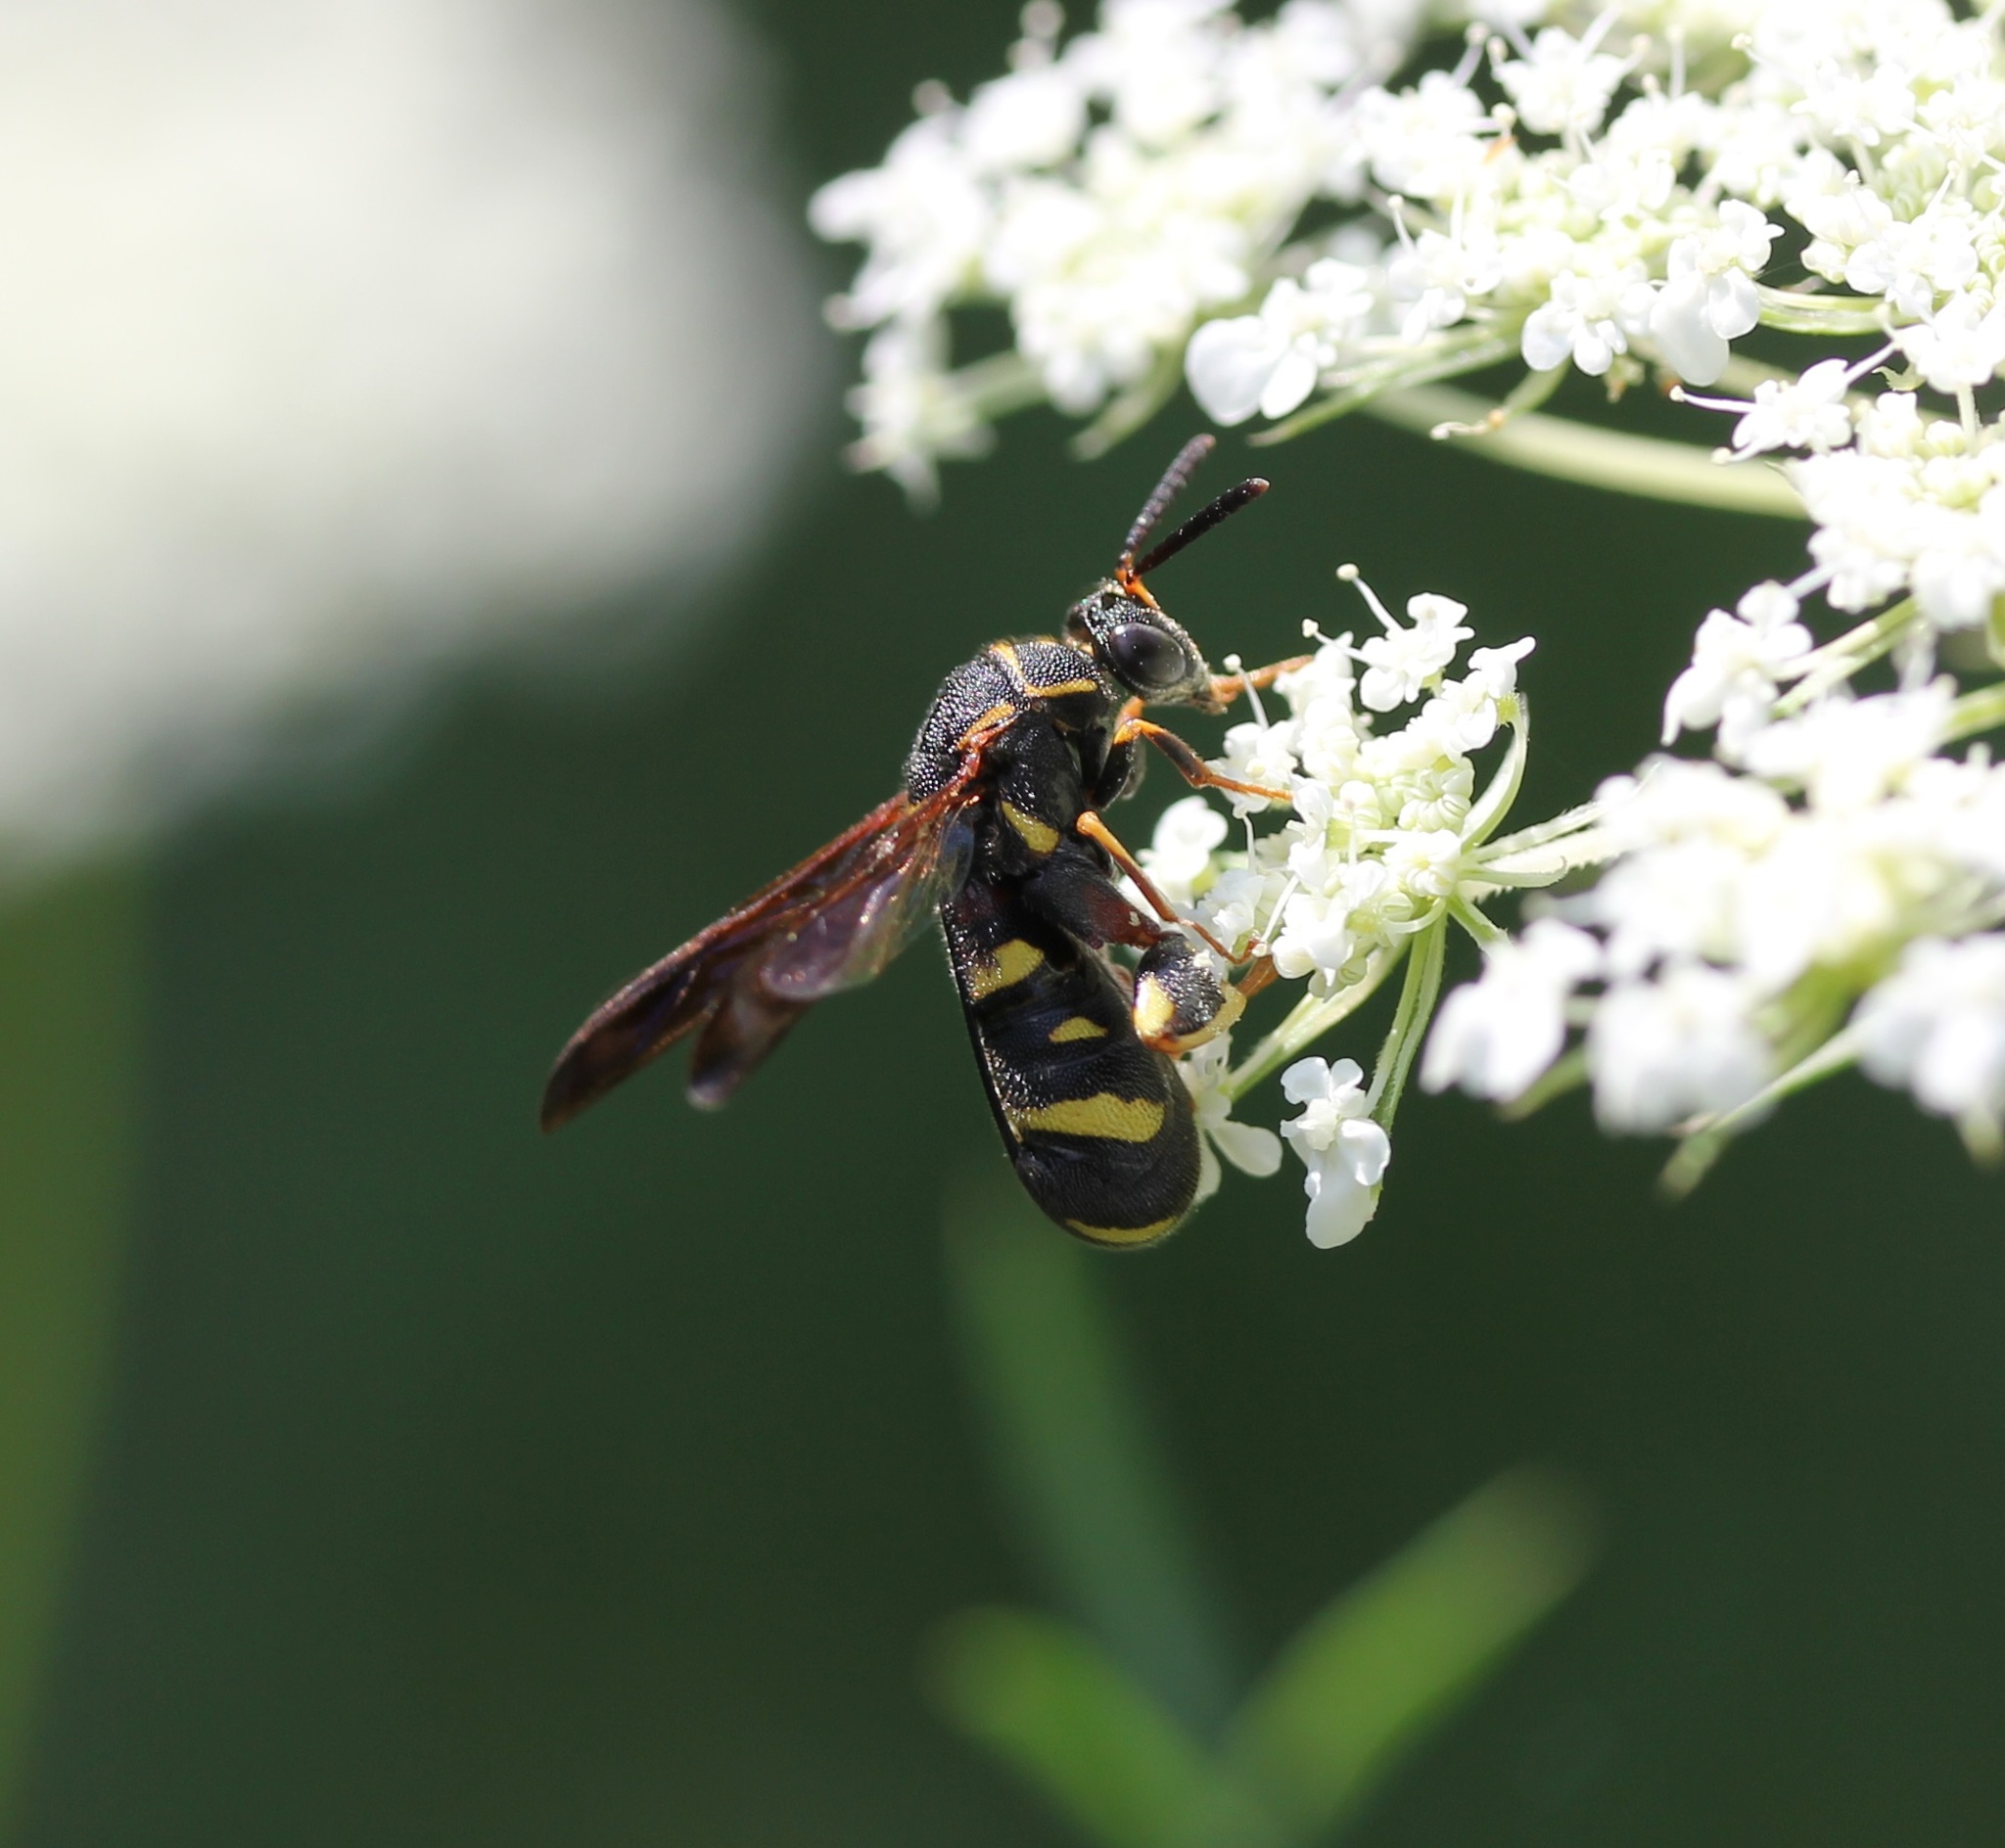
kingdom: Animalia
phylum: Arthropoda
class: Insecta
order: Hymenoptera
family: Leucospidae
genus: Leucospis
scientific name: Leucospis affinis
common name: Wasp
